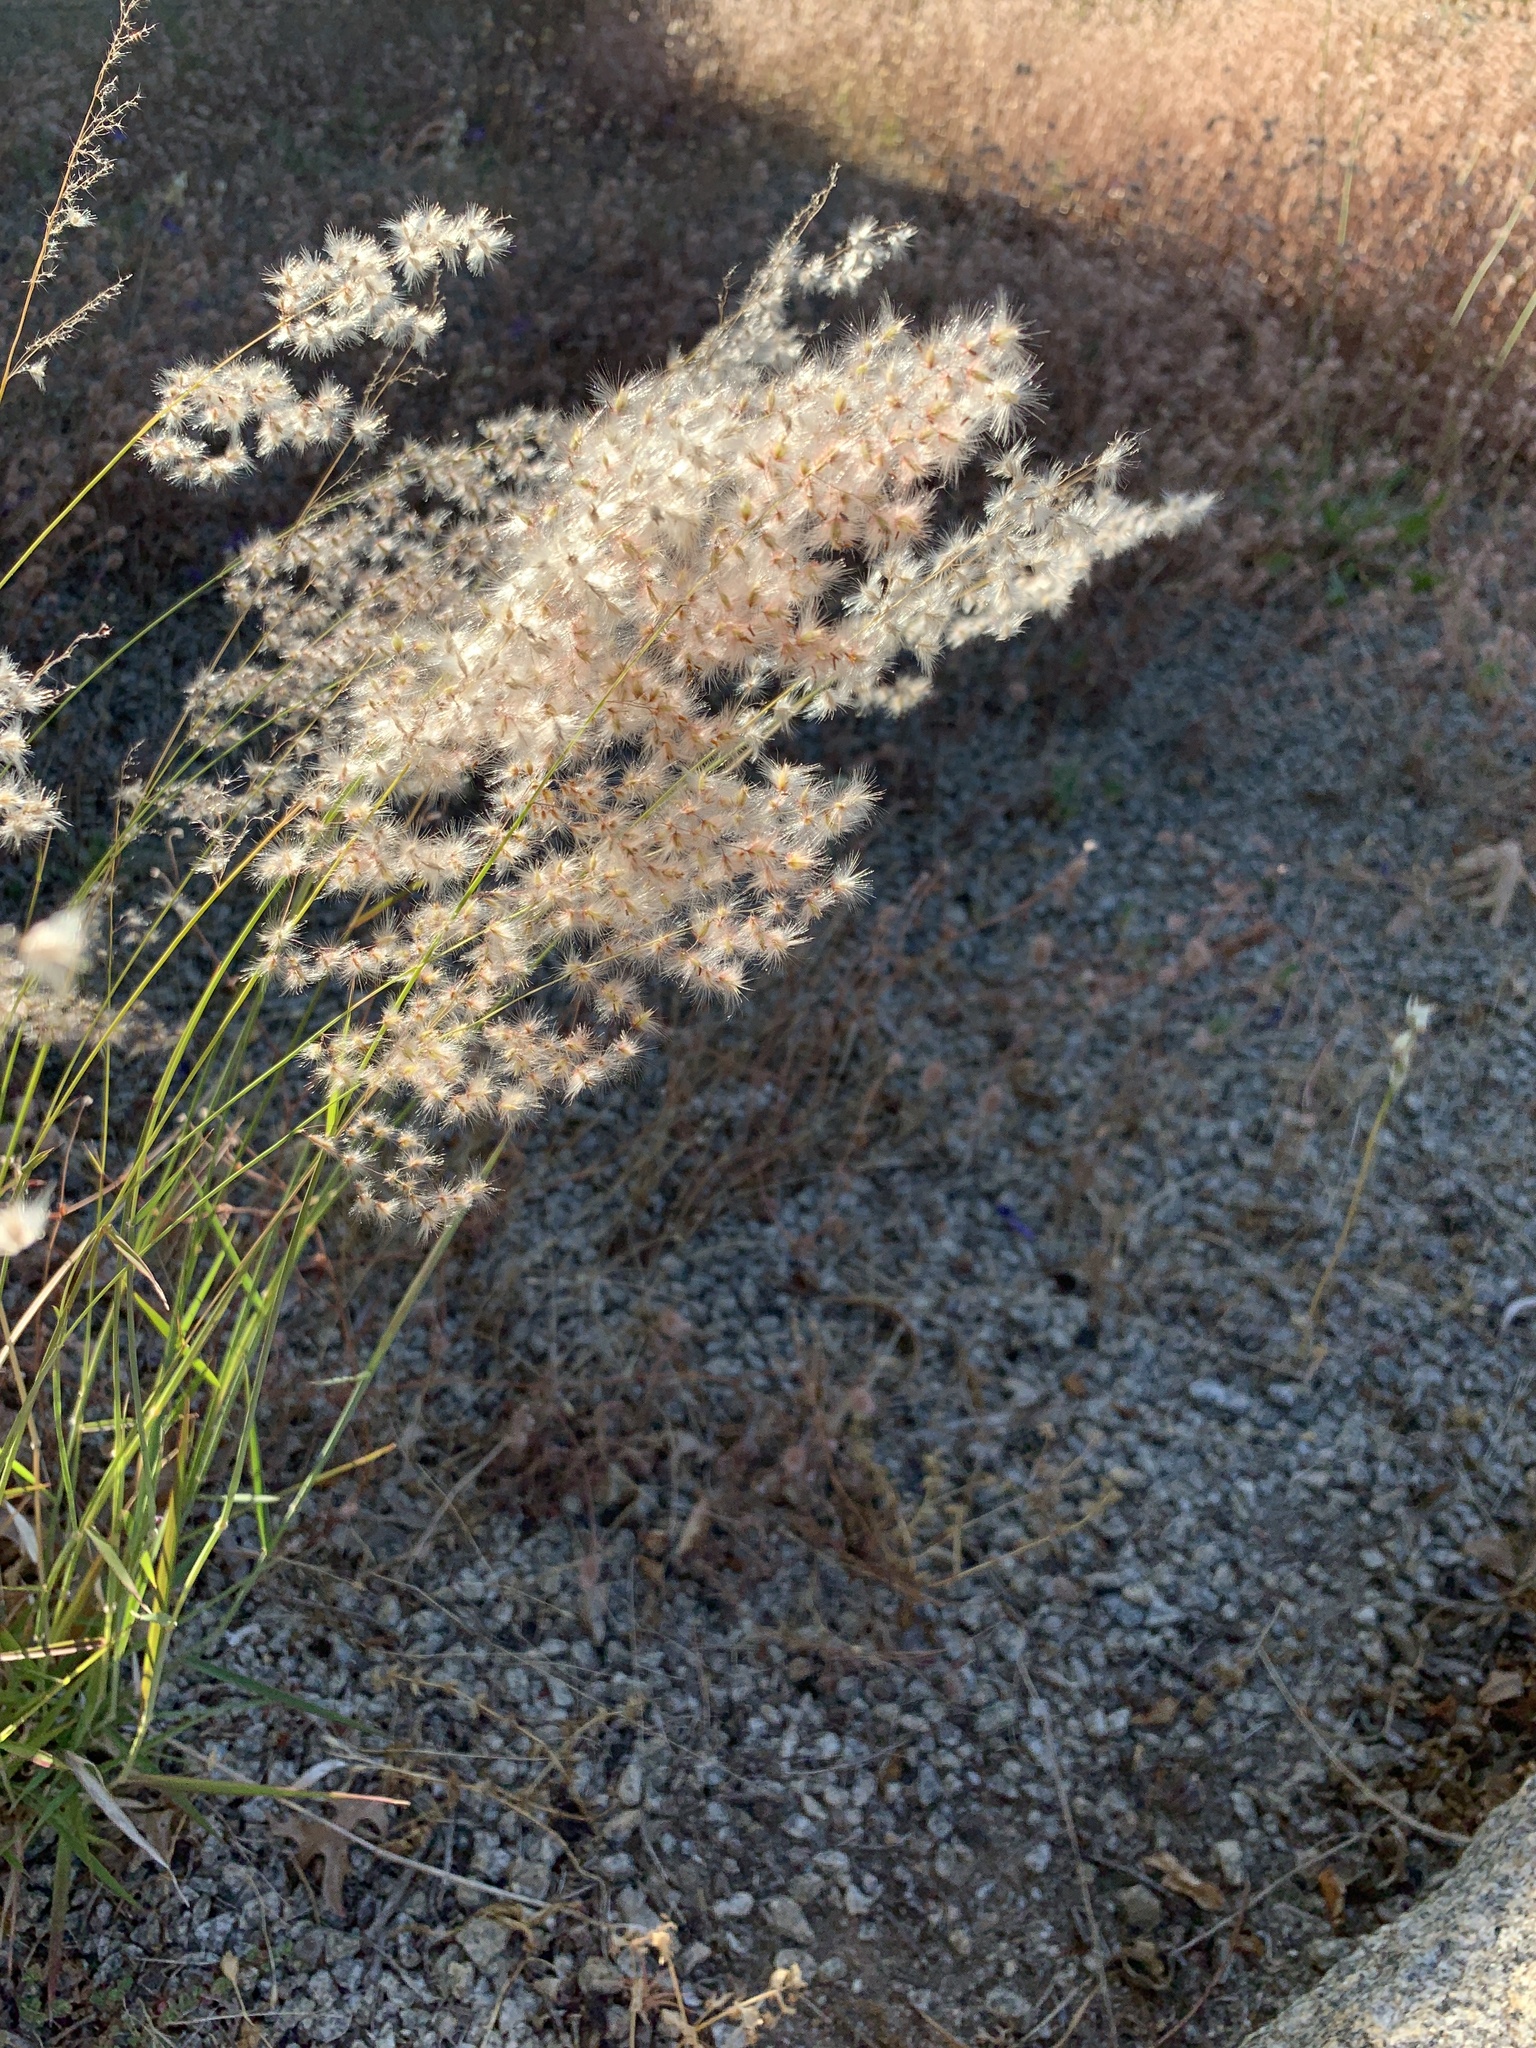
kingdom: Plantae
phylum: Tracheophyta
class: Liliopsida
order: Poales
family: Poaceae
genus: Melinis
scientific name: Melinis repens
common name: Rose natal grass
